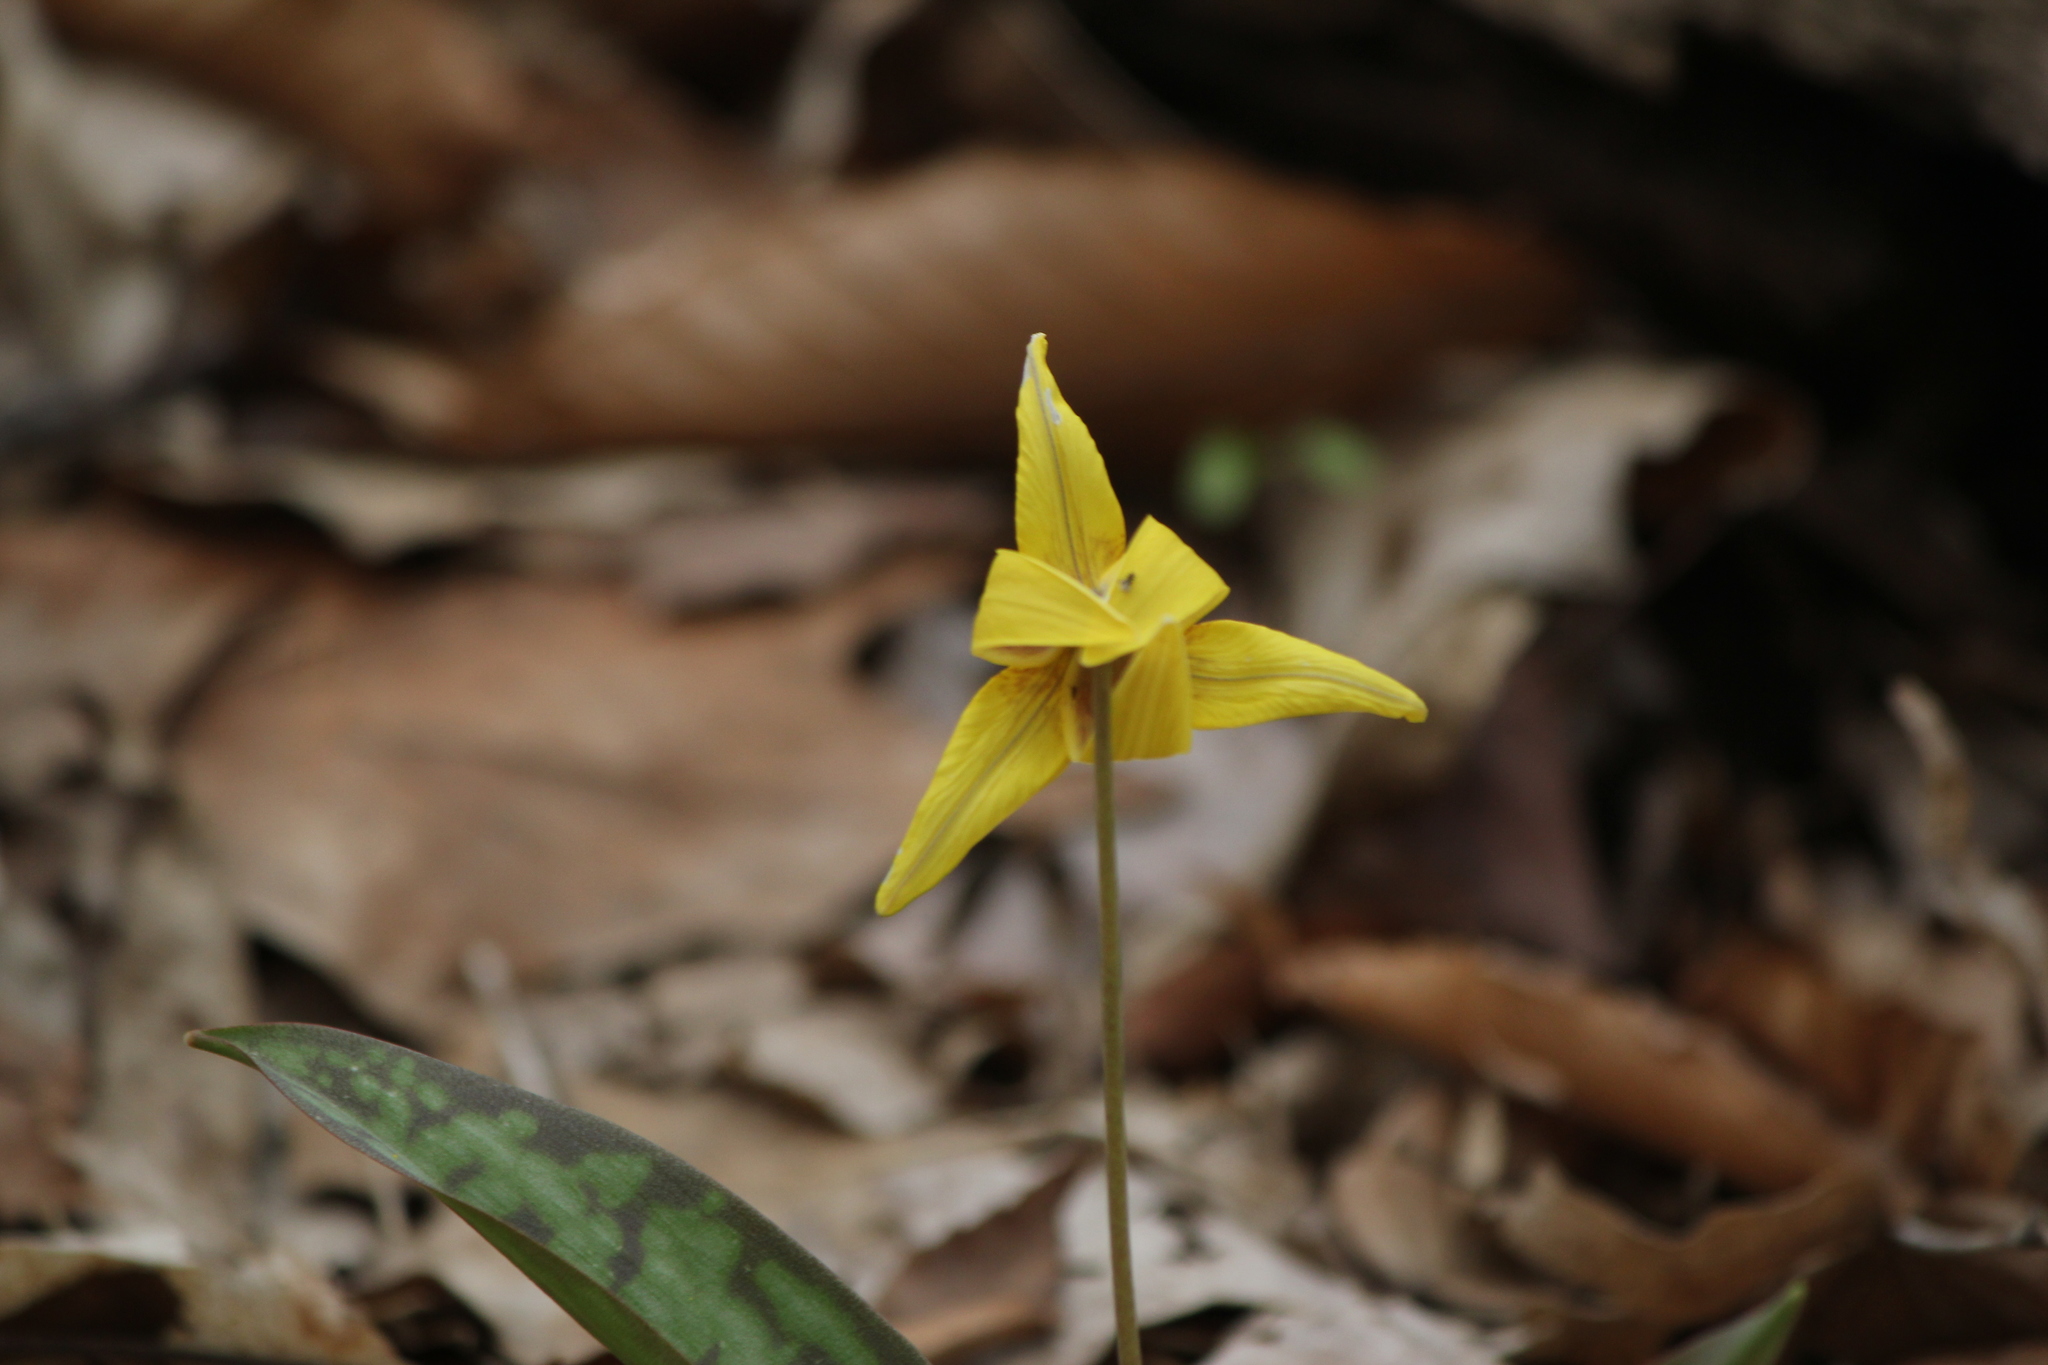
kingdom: Plantae
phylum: Tracheophyta
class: Liliopsida
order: Liliales
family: Liliaceae
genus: Erythronium
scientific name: Erythronium americanum
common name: Yellow adder's-tongue
